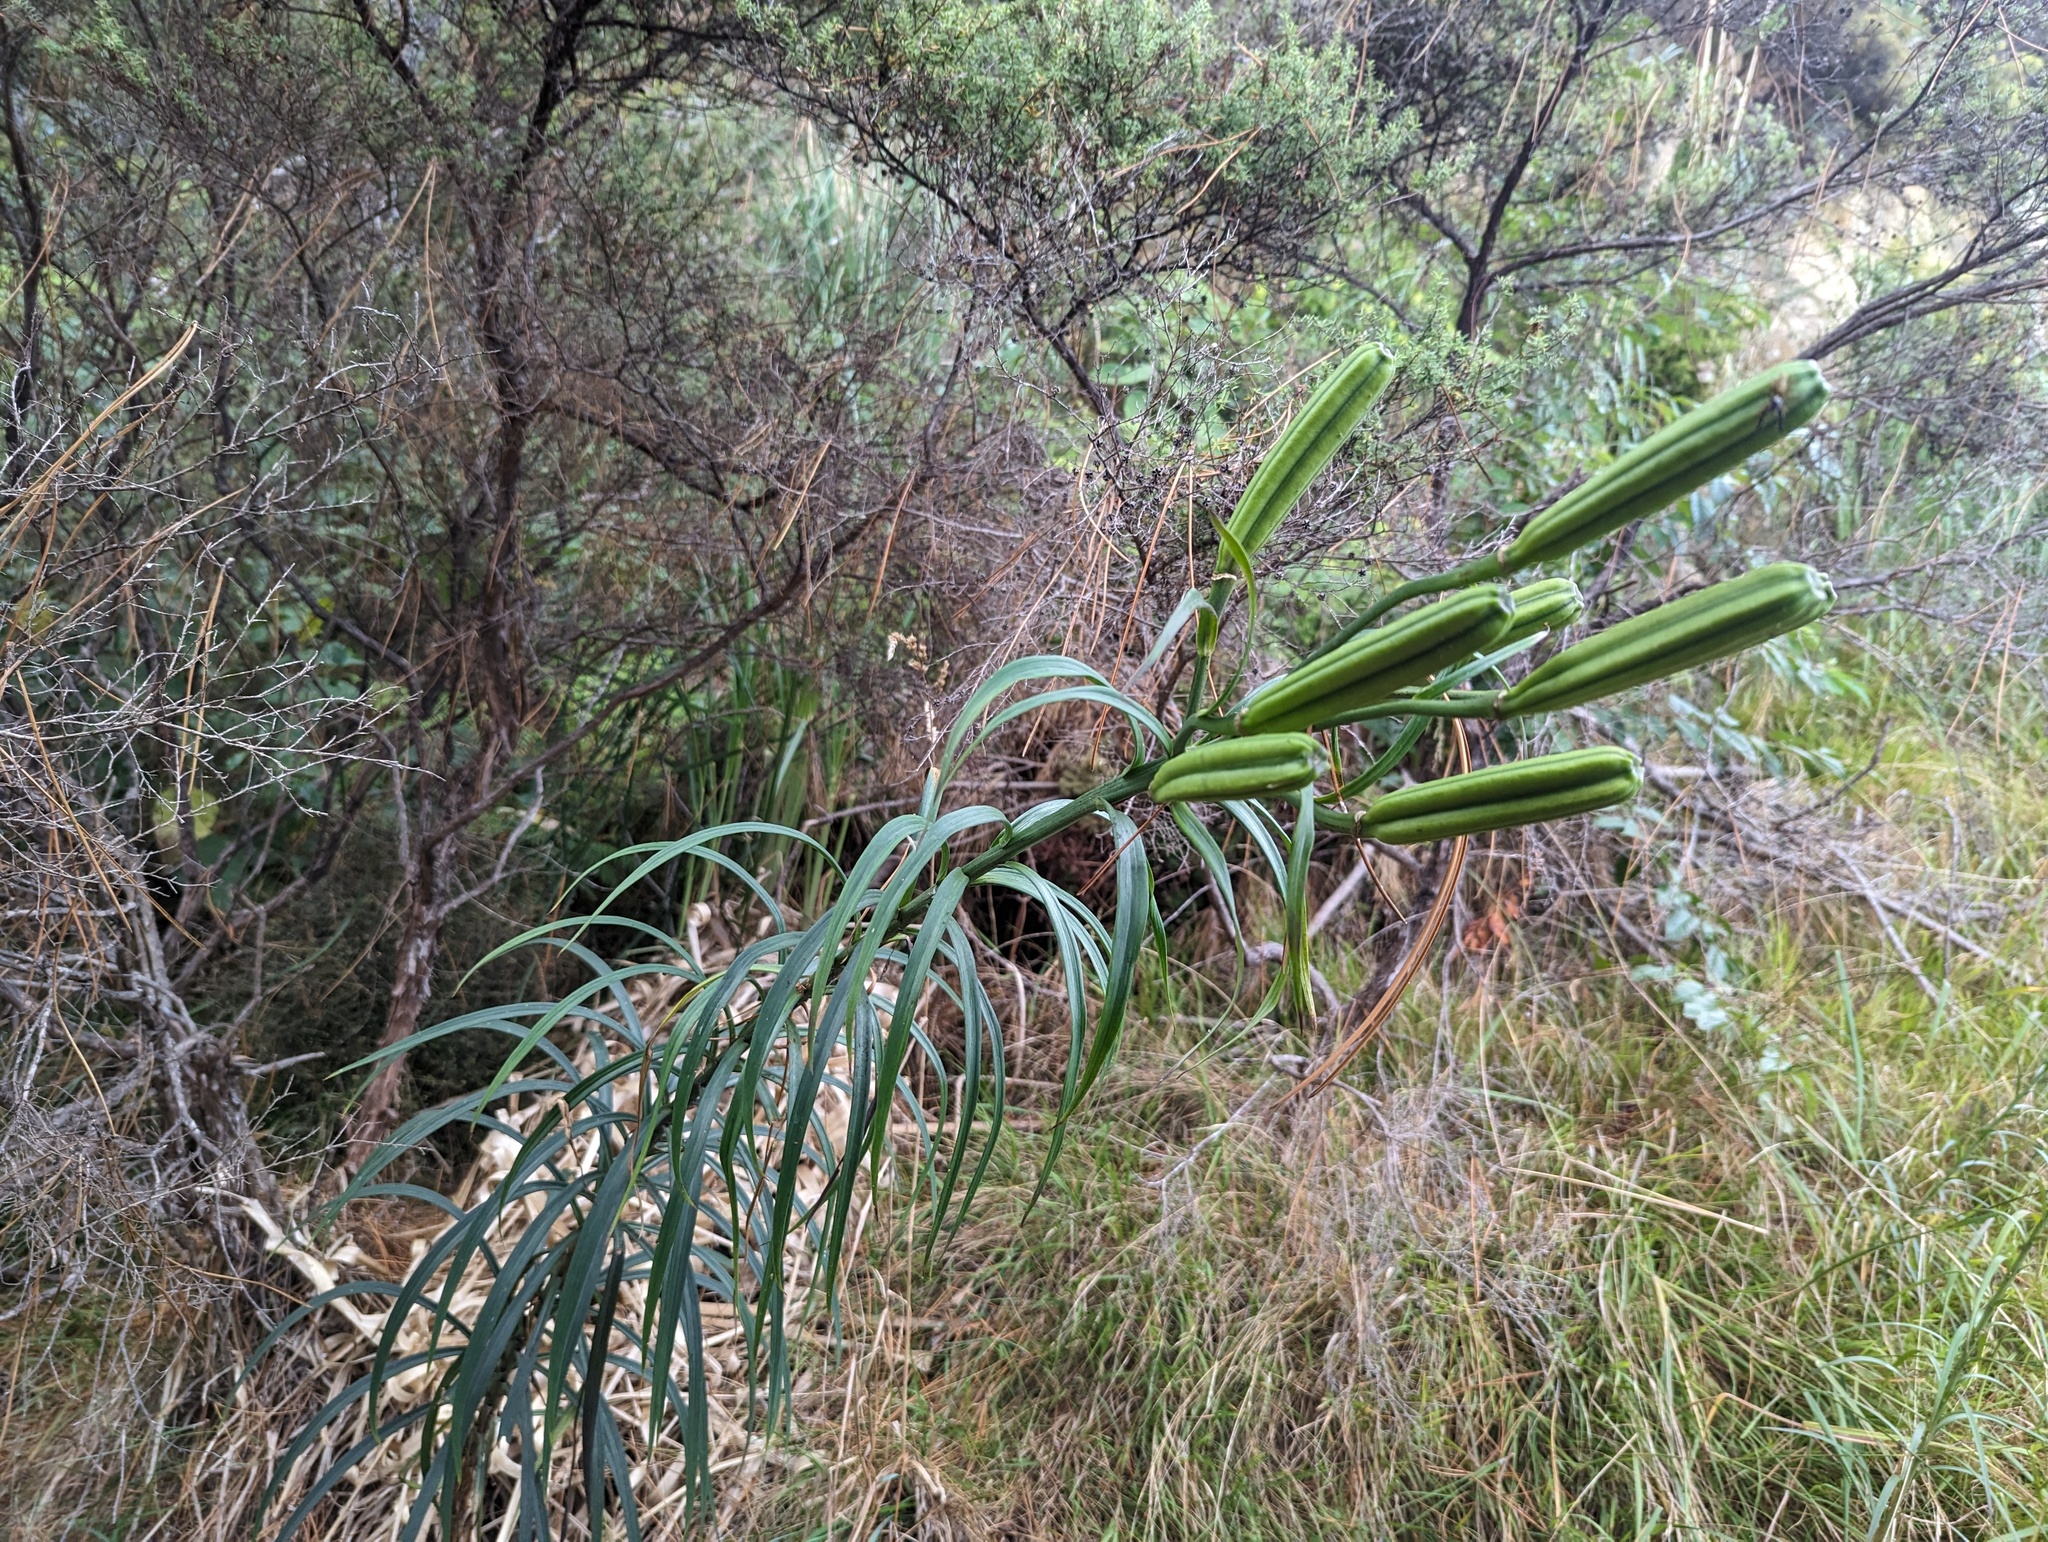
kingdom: Plantae
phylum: Tracheophyta
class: Liliopsida
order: Liliales
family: Liliaceae
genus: Lilium
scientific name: Lilium formosanum
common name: Formosa lily
